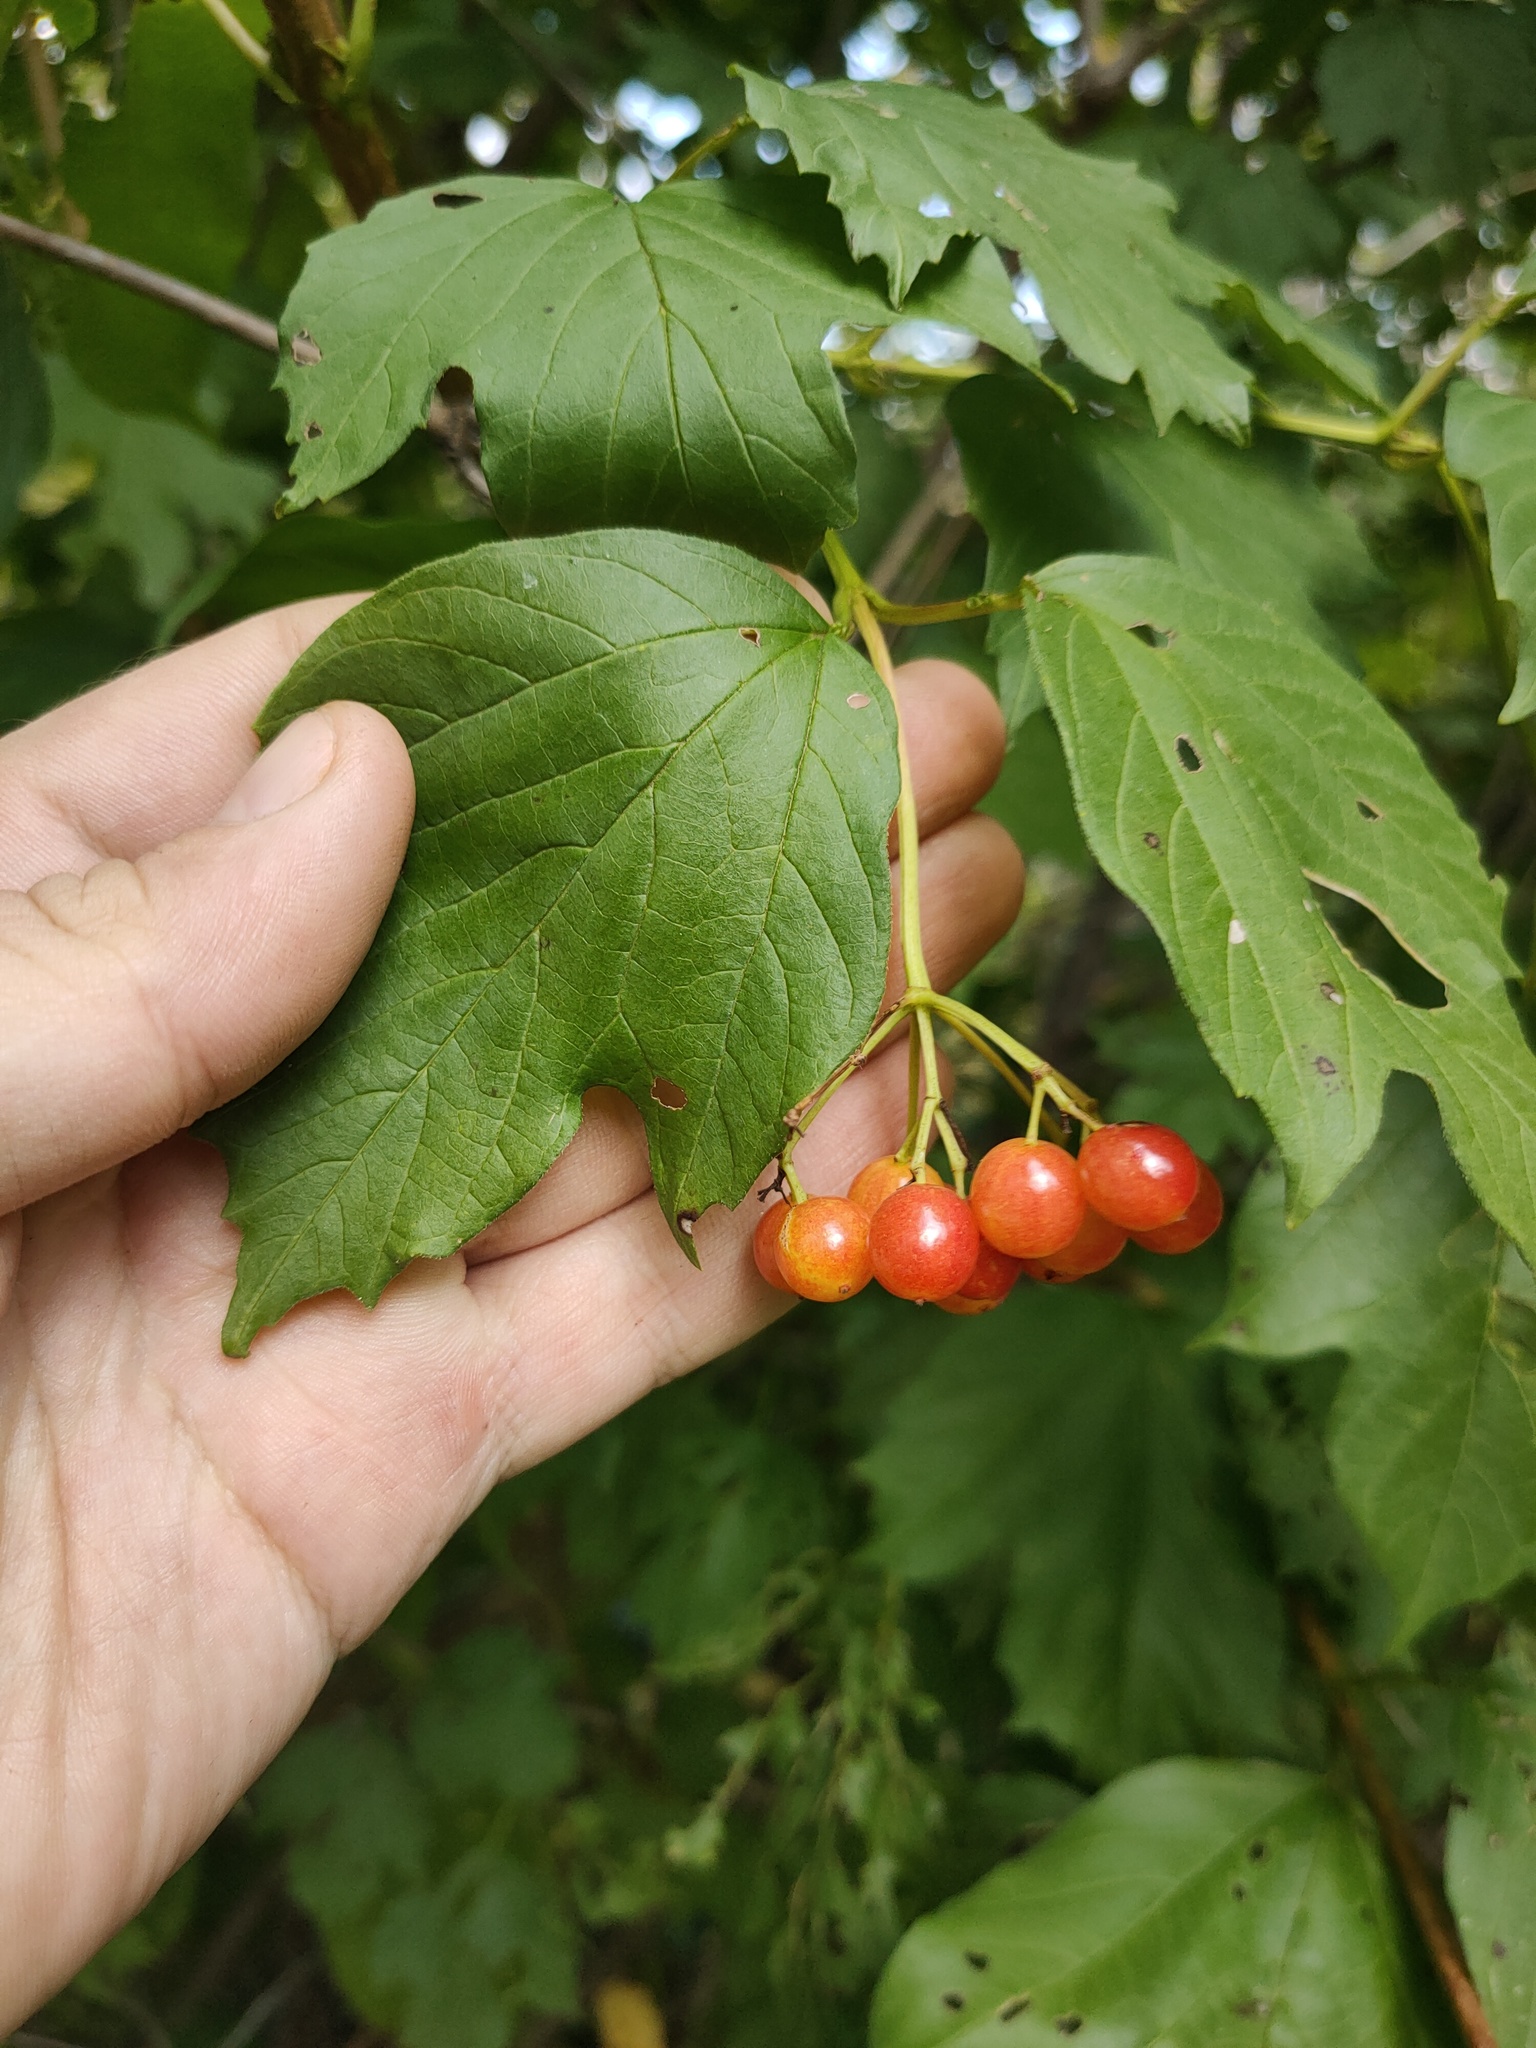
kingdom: Plantae
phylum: Tracheophyta
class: Magnoliopsida
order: Dipsacales
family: Viburnaceae
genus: Viburnum
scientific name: Viburnum opulus
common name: Guelder-rose
